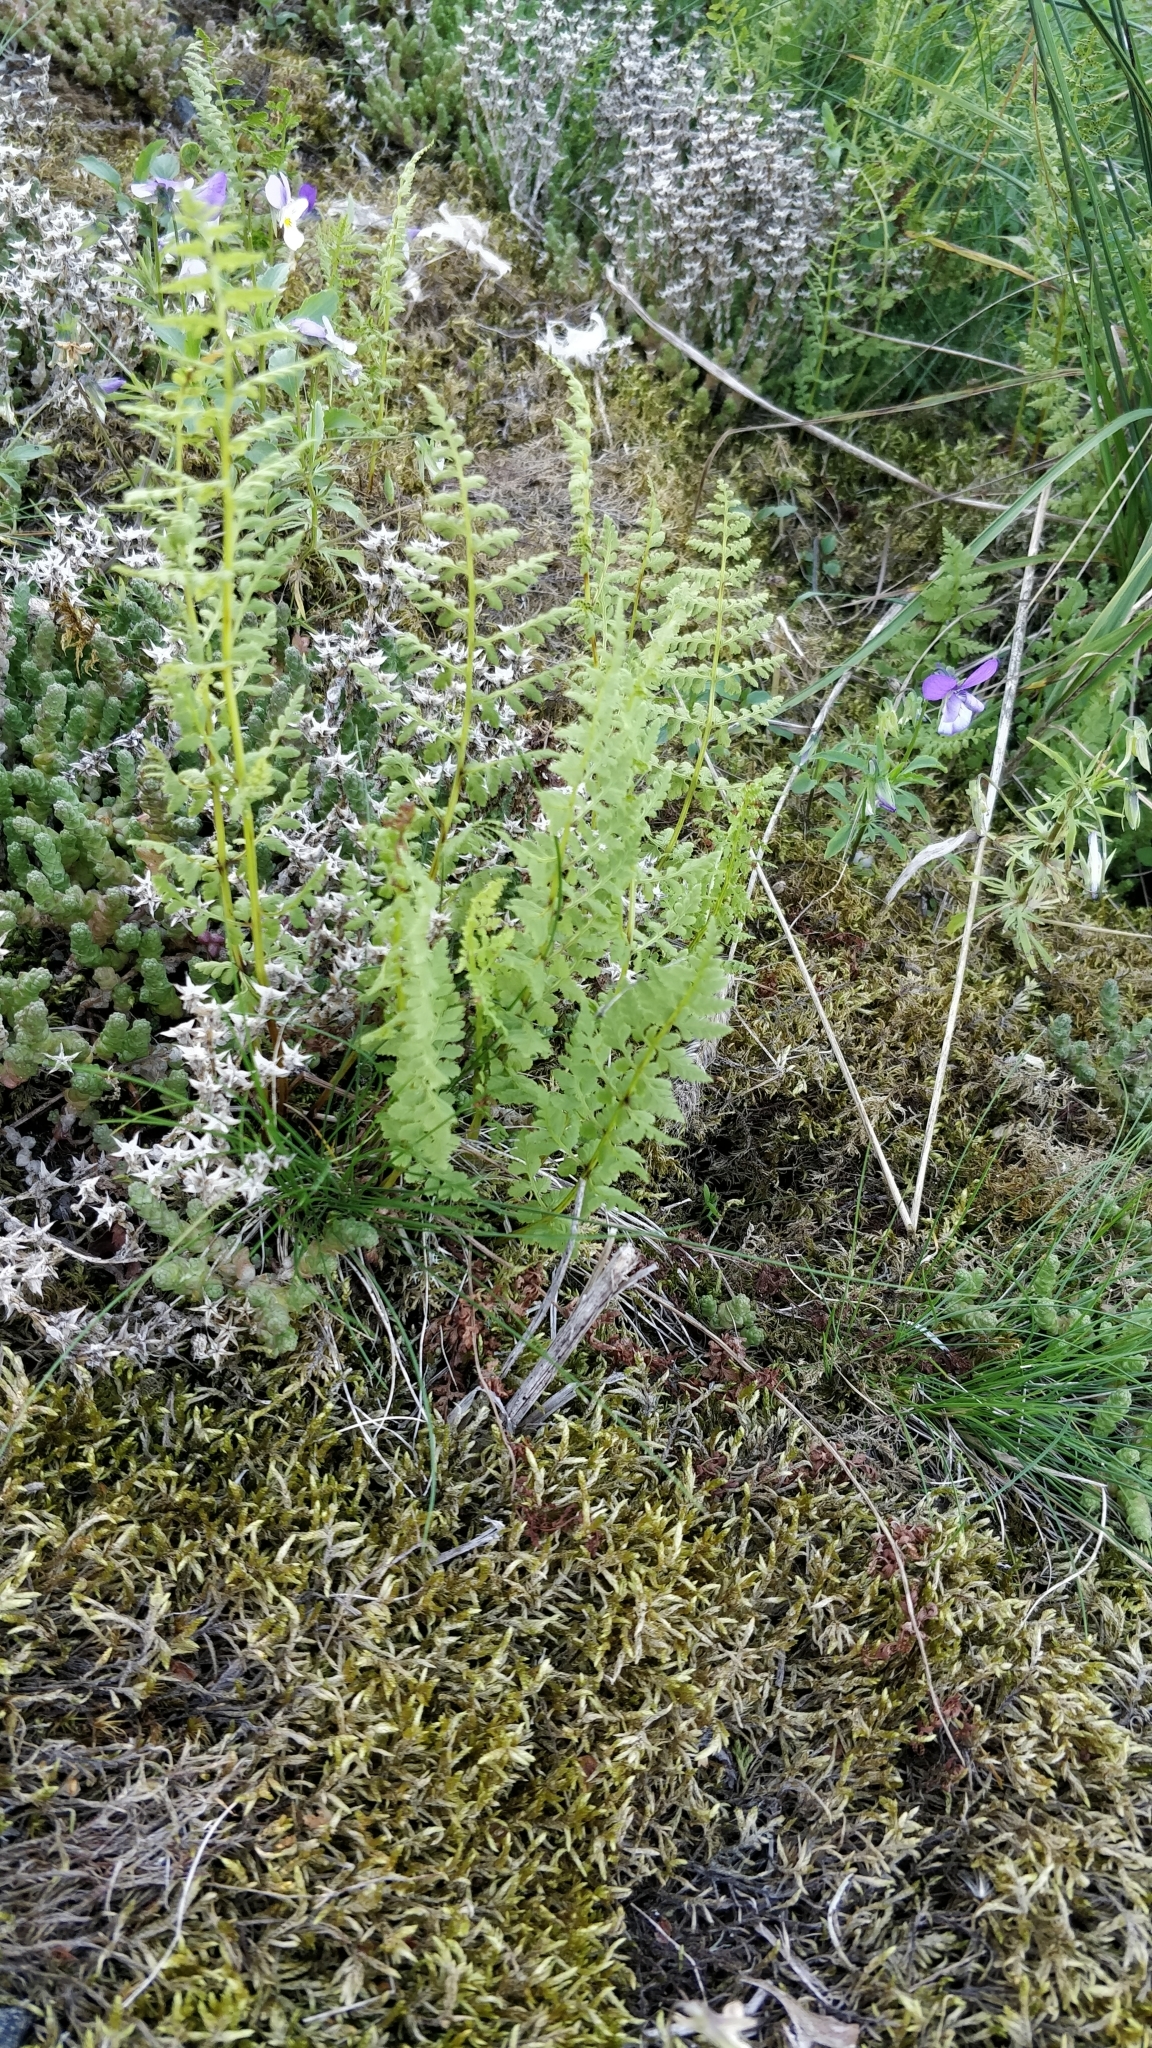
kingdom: Plantae
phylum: Tracheophyta
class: Polypodiopsida
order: Polypodiales
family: Cystopteridaceae
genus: Cystopteris
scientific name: Cystopteris fragilis
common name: Brittle bladder fern
